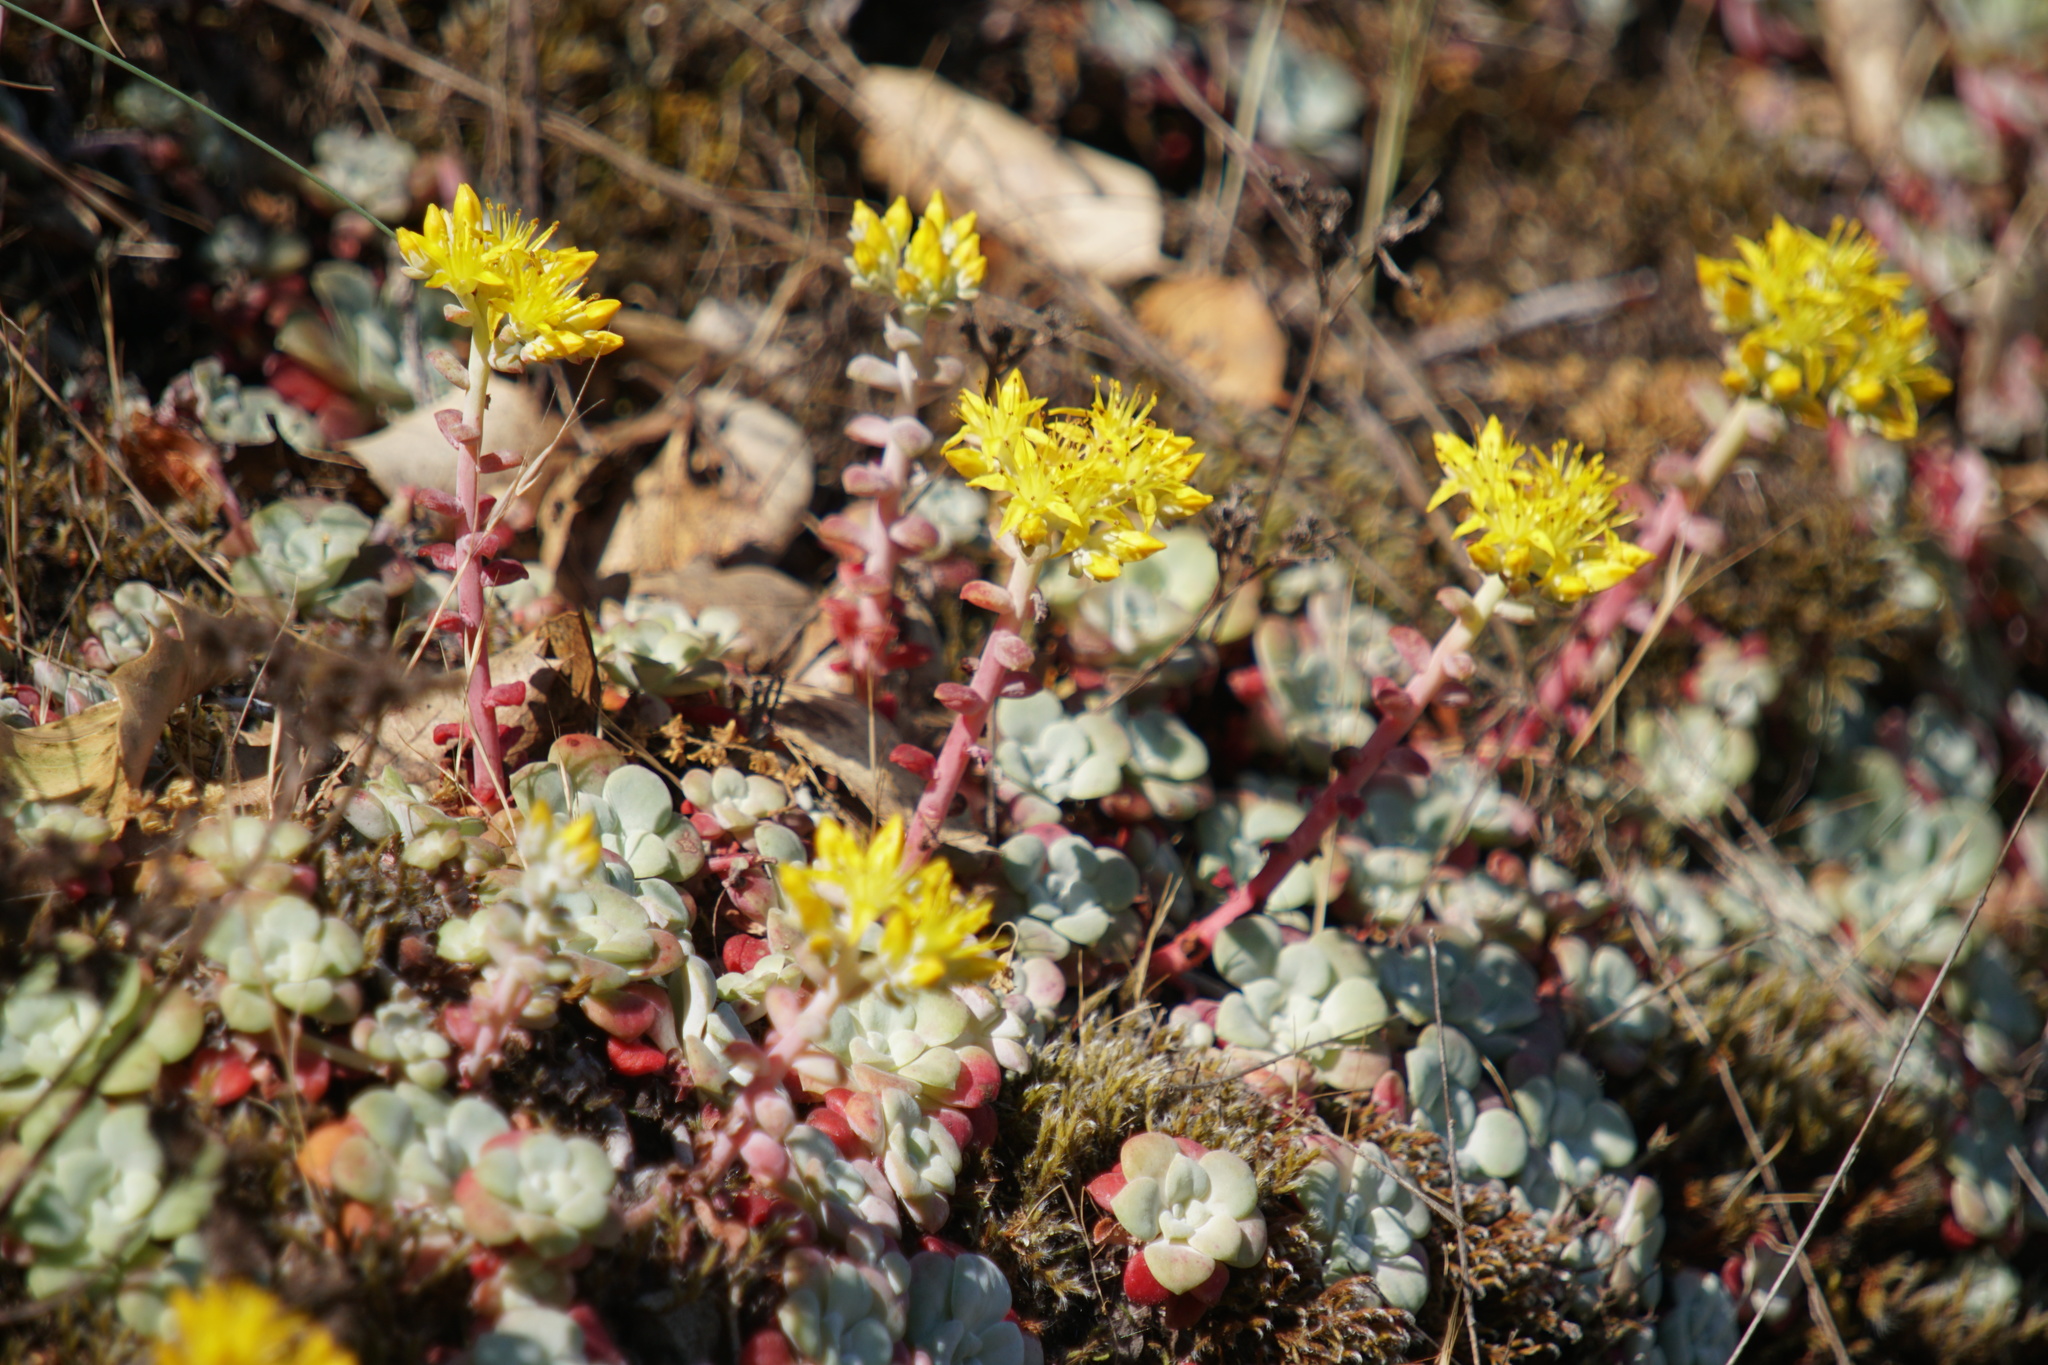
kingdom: Plantae
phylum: Tracheophyta
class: Magnoliopsida
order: Saxifragales
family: Crassulaceae
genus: Sedum
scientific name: Sedum spathulifolium
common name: Colorado stonecrop
